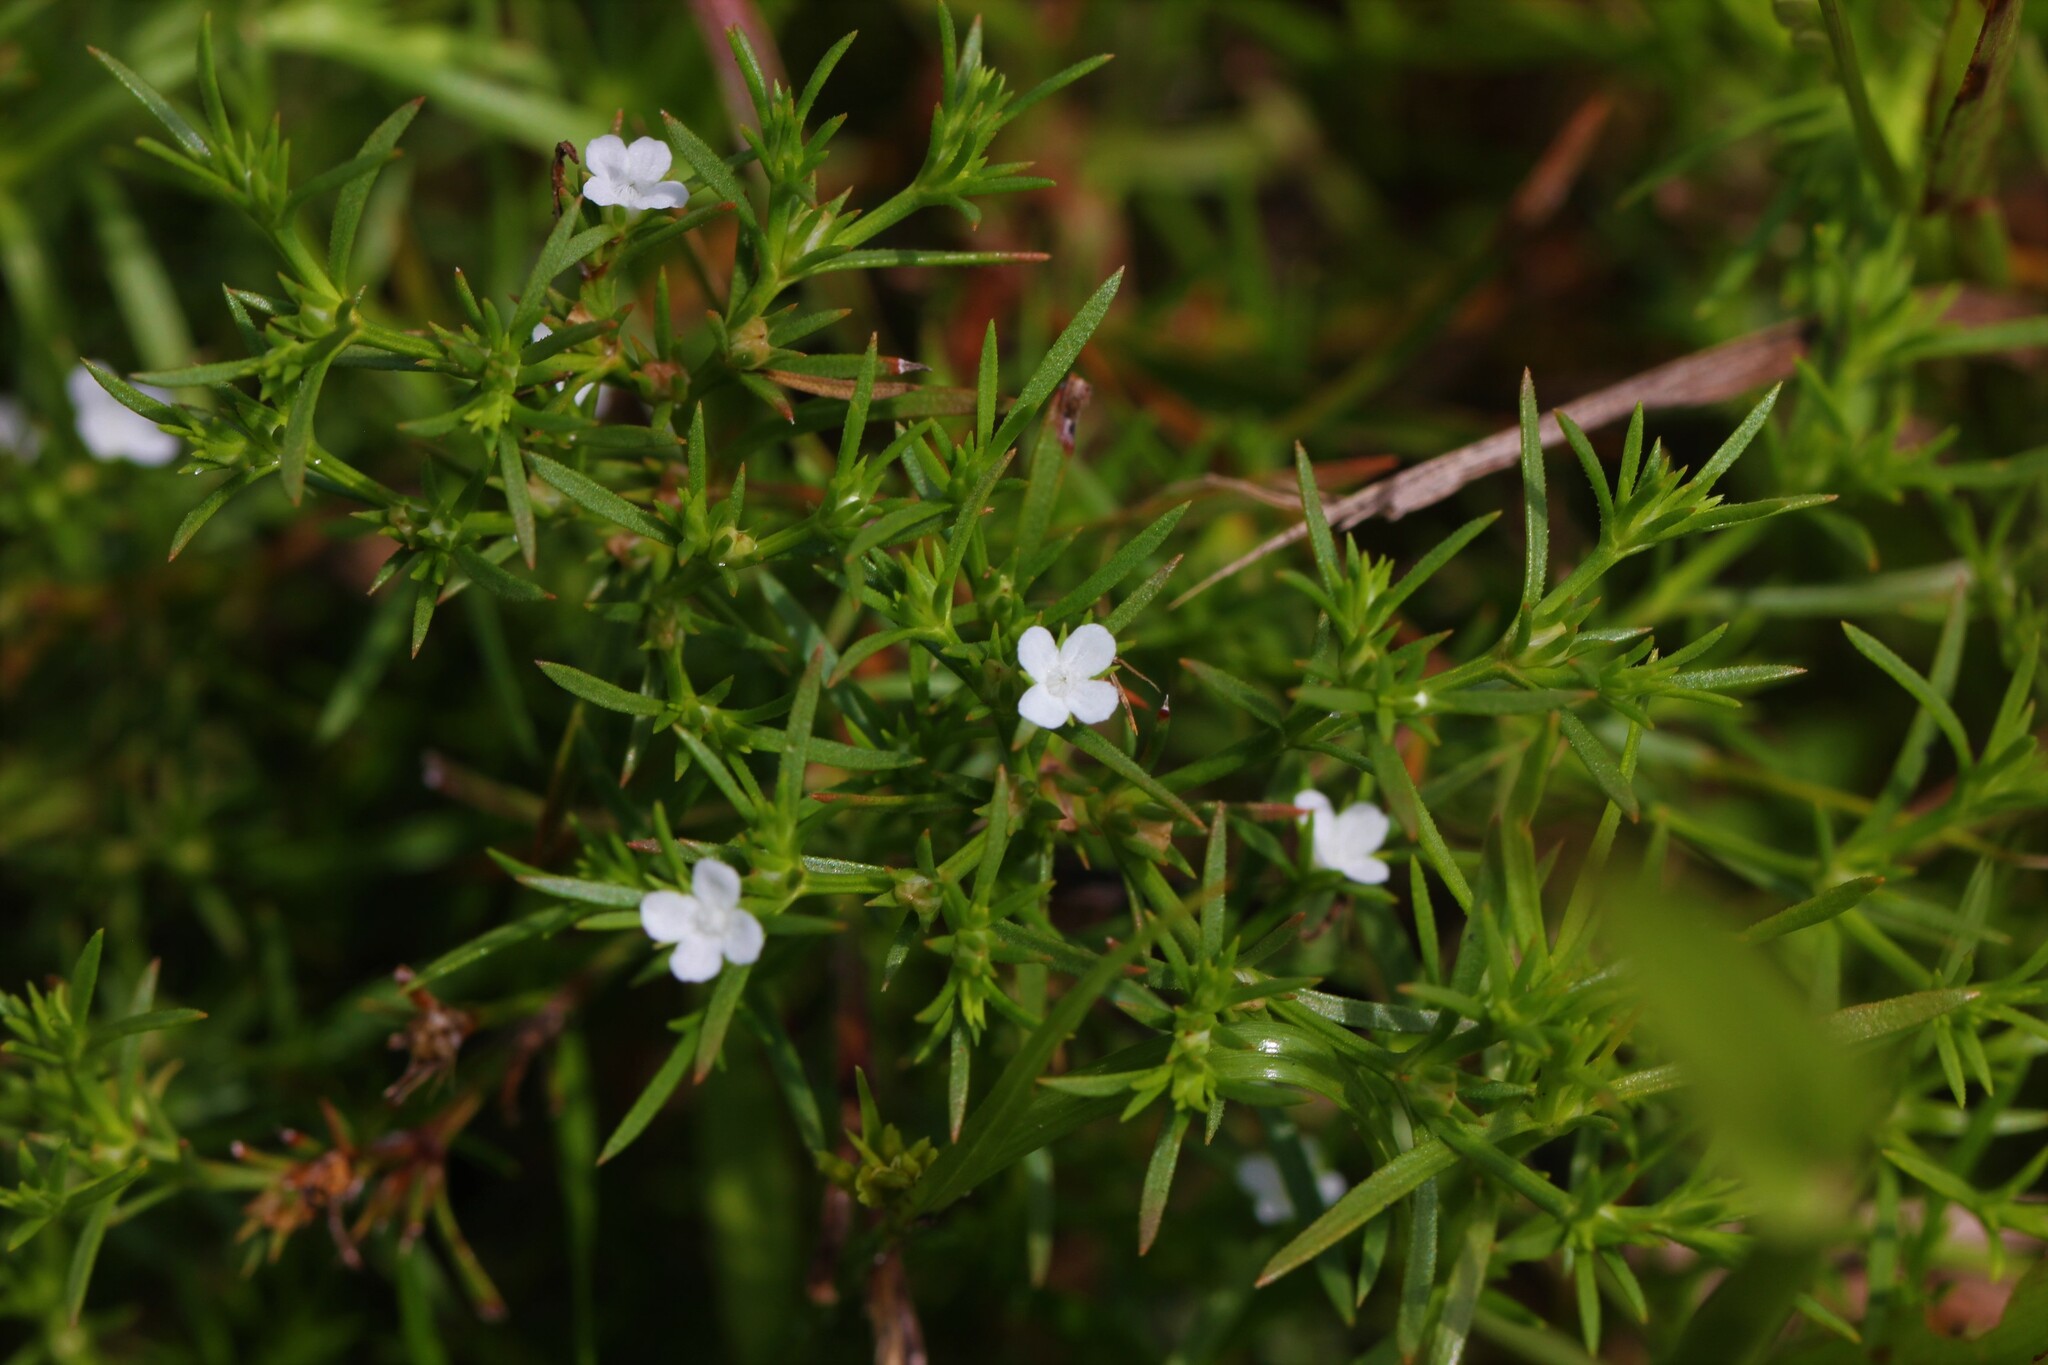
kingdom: Plantae
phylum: Tracheophyta
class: Magnoliopsida
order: Lamiales
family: Tetrachondraceae
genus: Polypremum
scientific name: Polypremum procumbens
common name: Juniper-leaf
